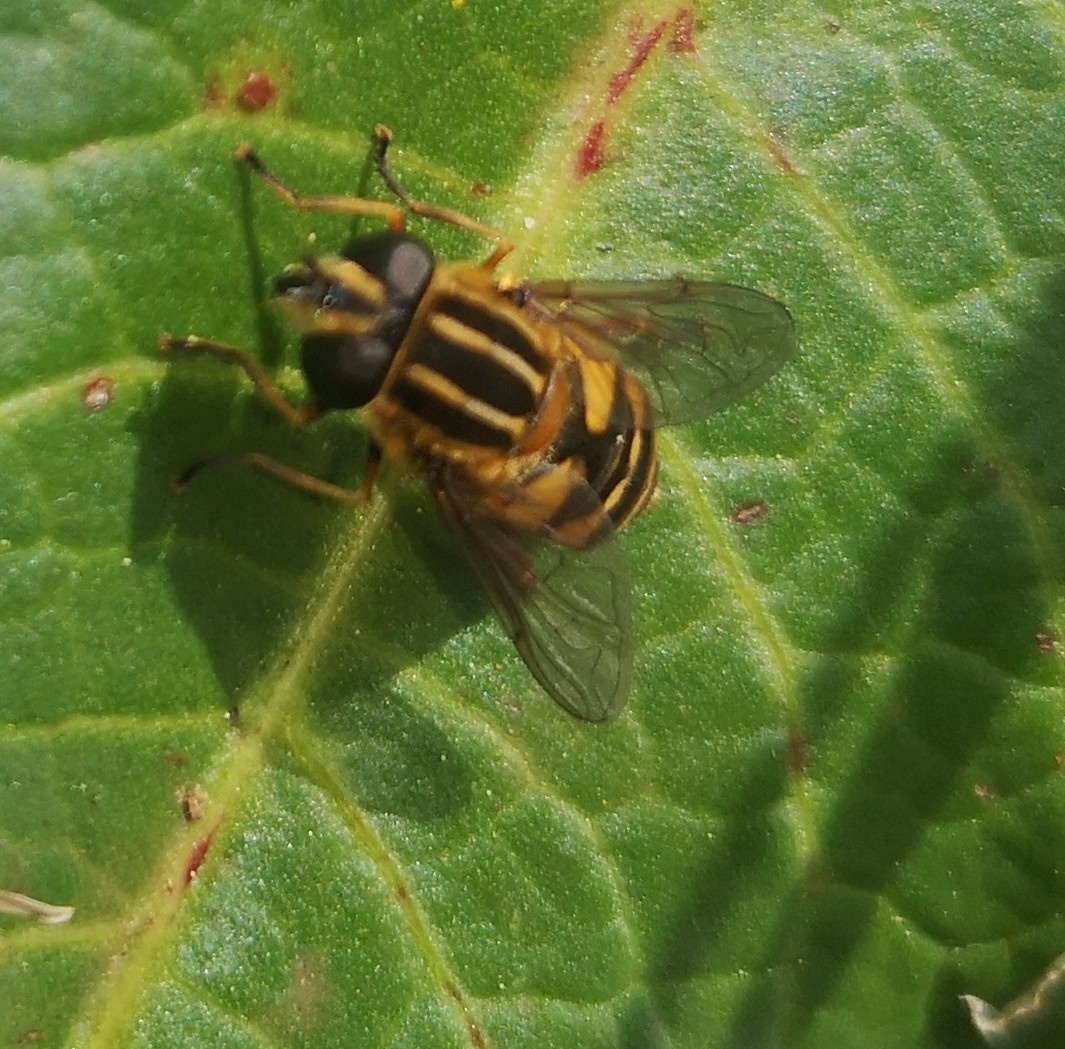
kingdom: Animalia
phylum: Arthropoda
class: Insecta
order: Diptera
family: Syrphidae
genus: Helophilus
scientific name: Helophilus pendulus
